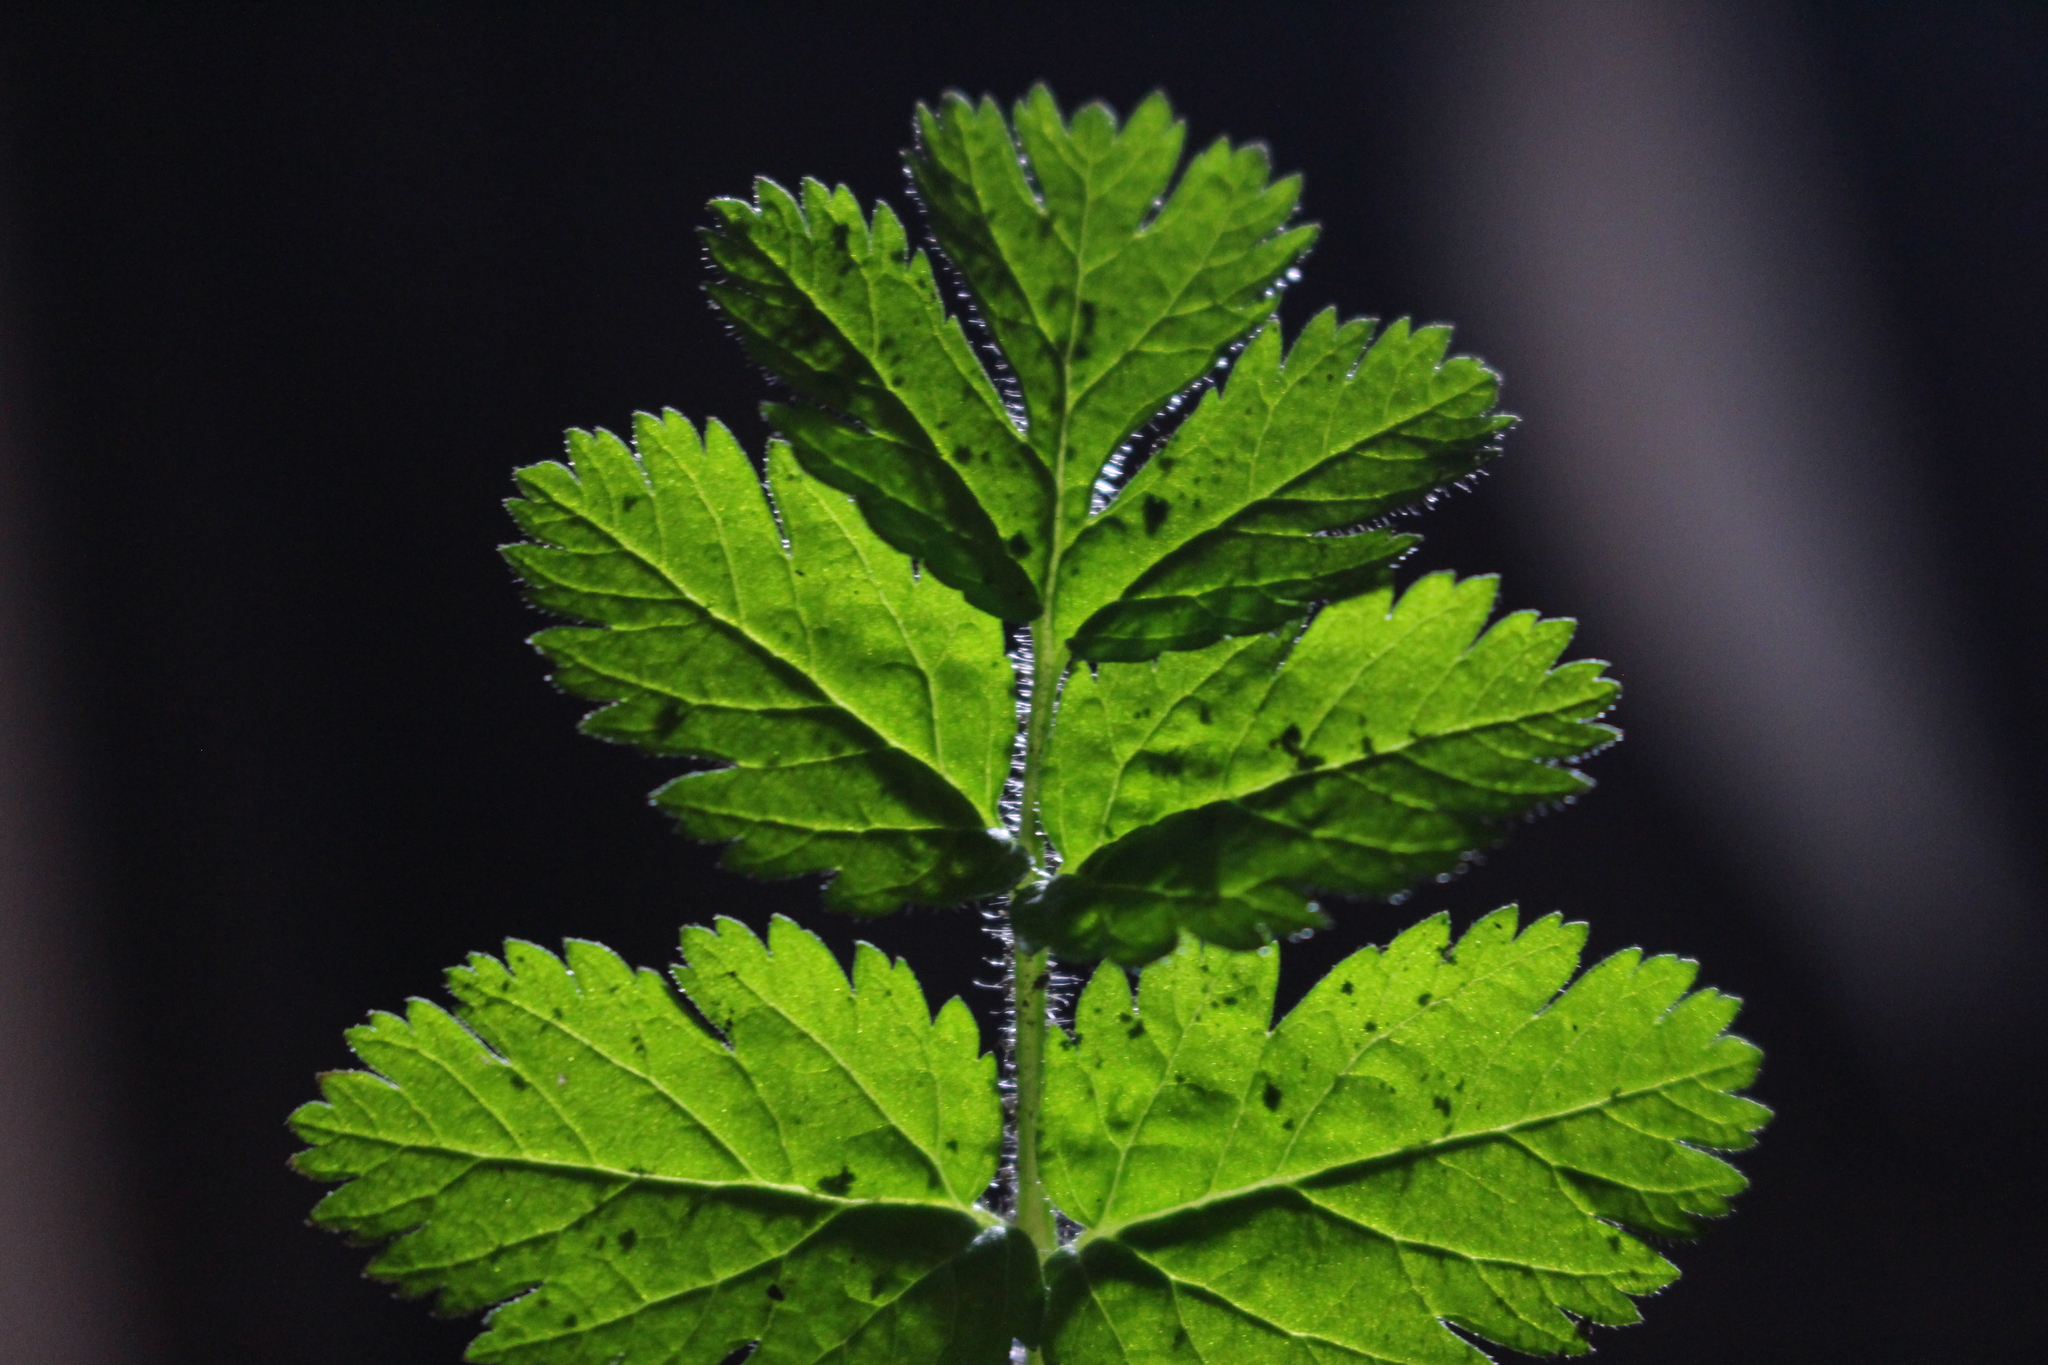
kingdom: Plantae
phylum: Tracheophyta
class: Magnoliopsida
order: Geraniales
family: Geraniaceae
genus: Erodium
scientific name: Erodium moschatum
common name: Musk stork's-bill
